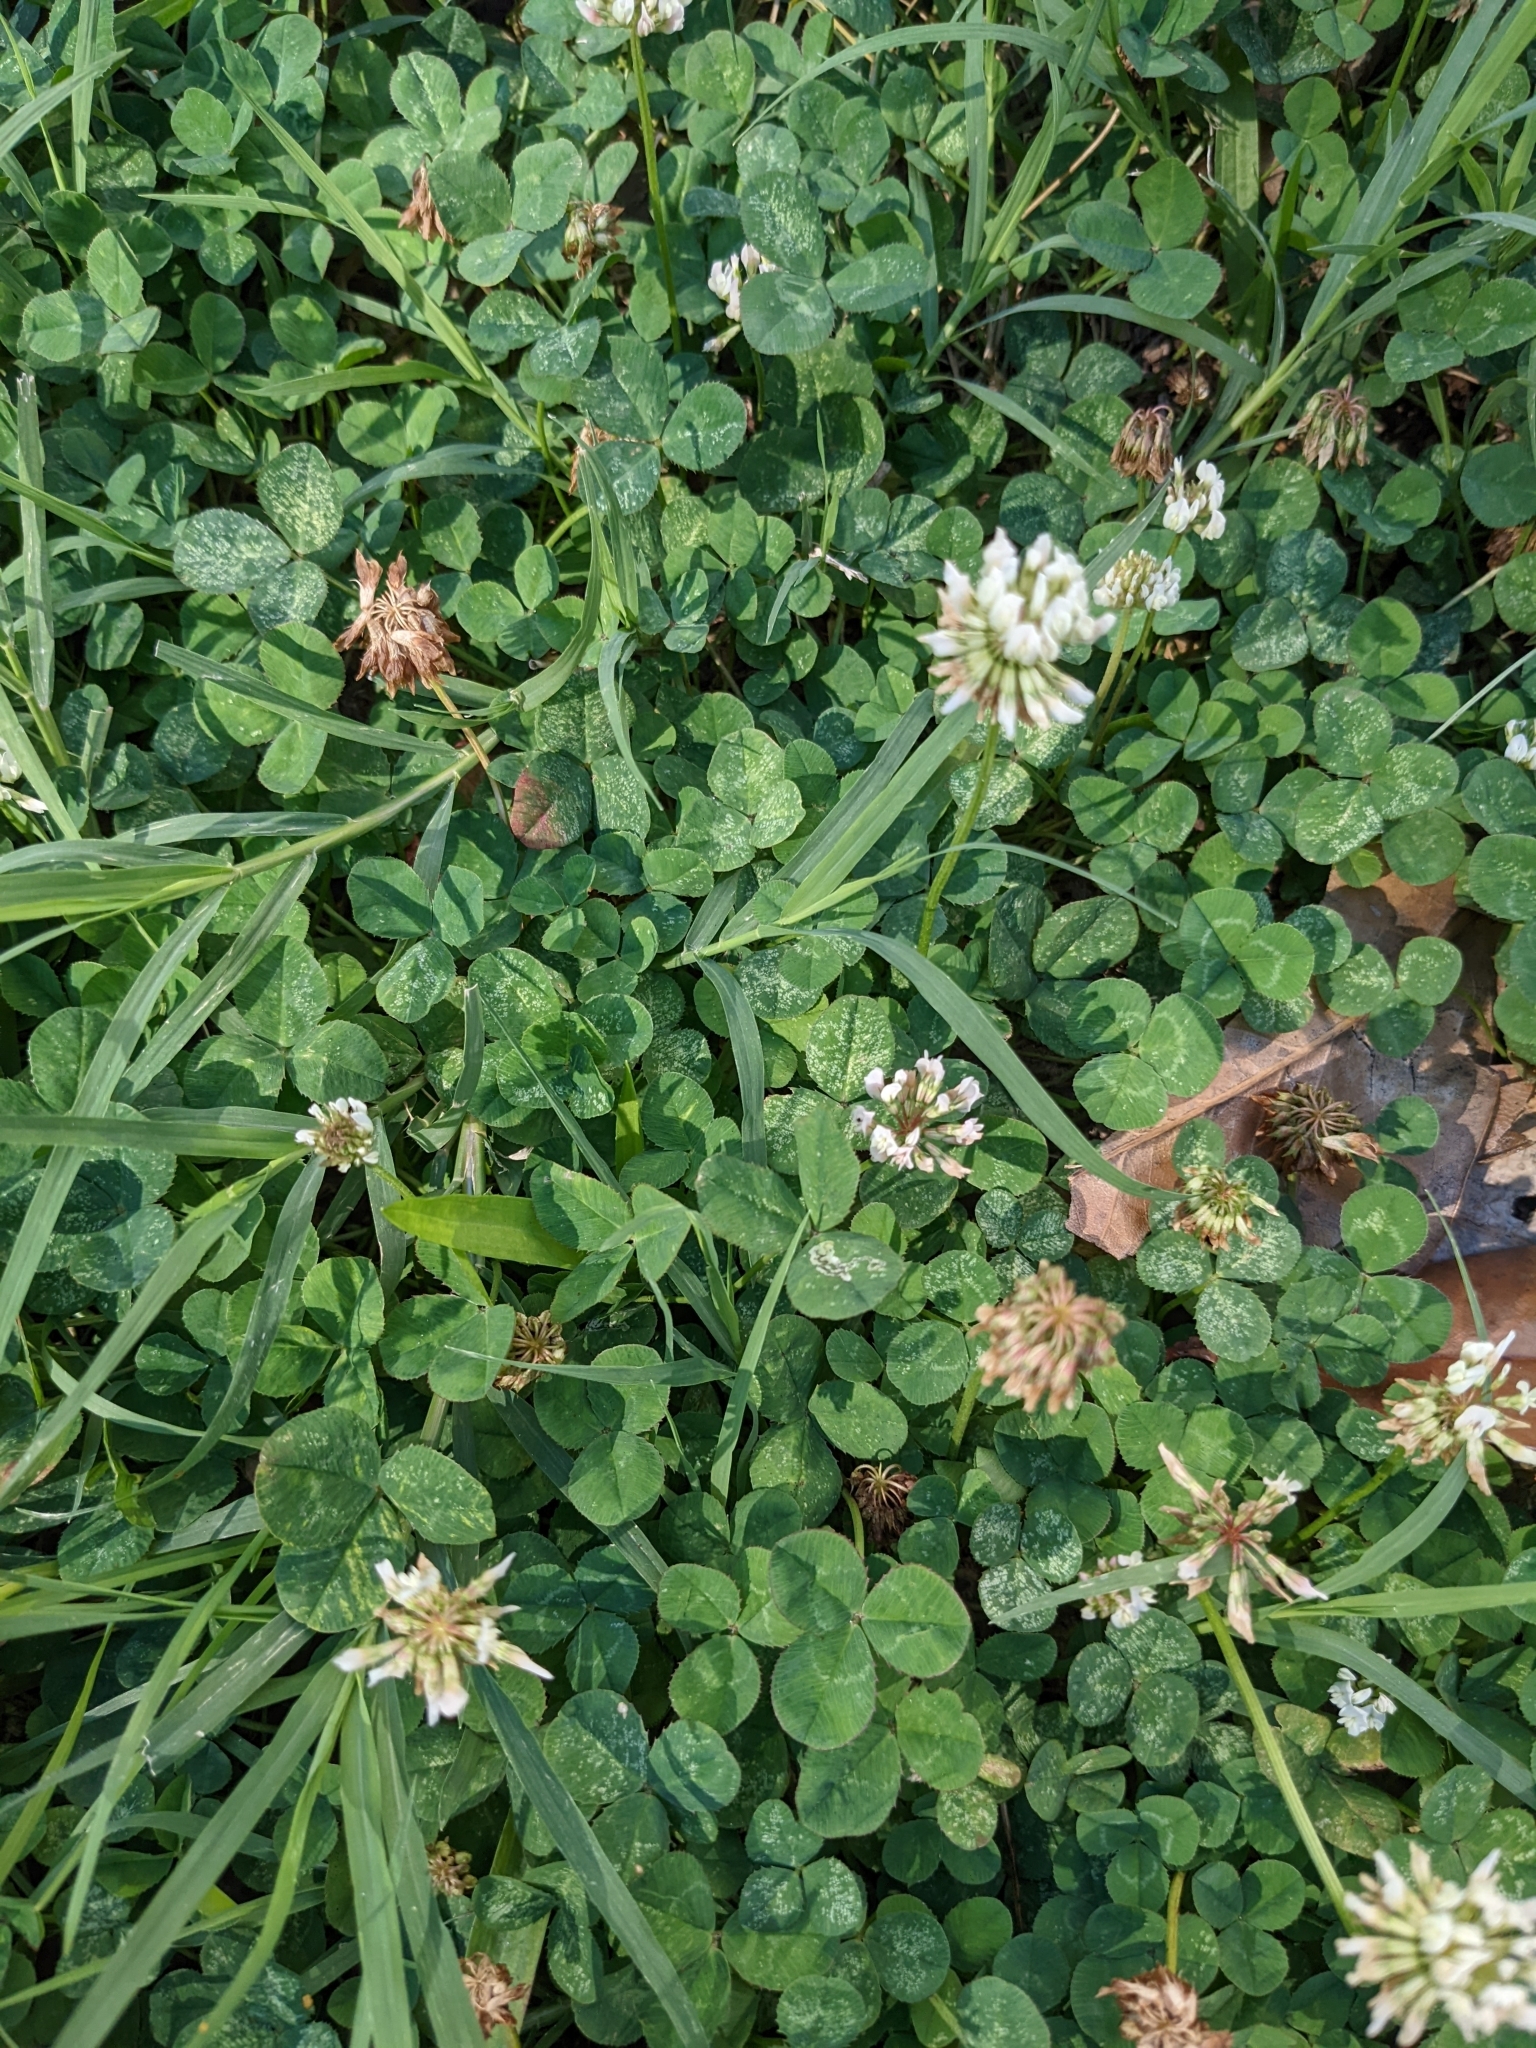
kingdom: Plantae
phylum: Tracheophyta
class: Magnoliopsida
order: Fabales
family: Fabaceae
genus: Trifolium
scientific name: Trifolium repens
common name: White clover
